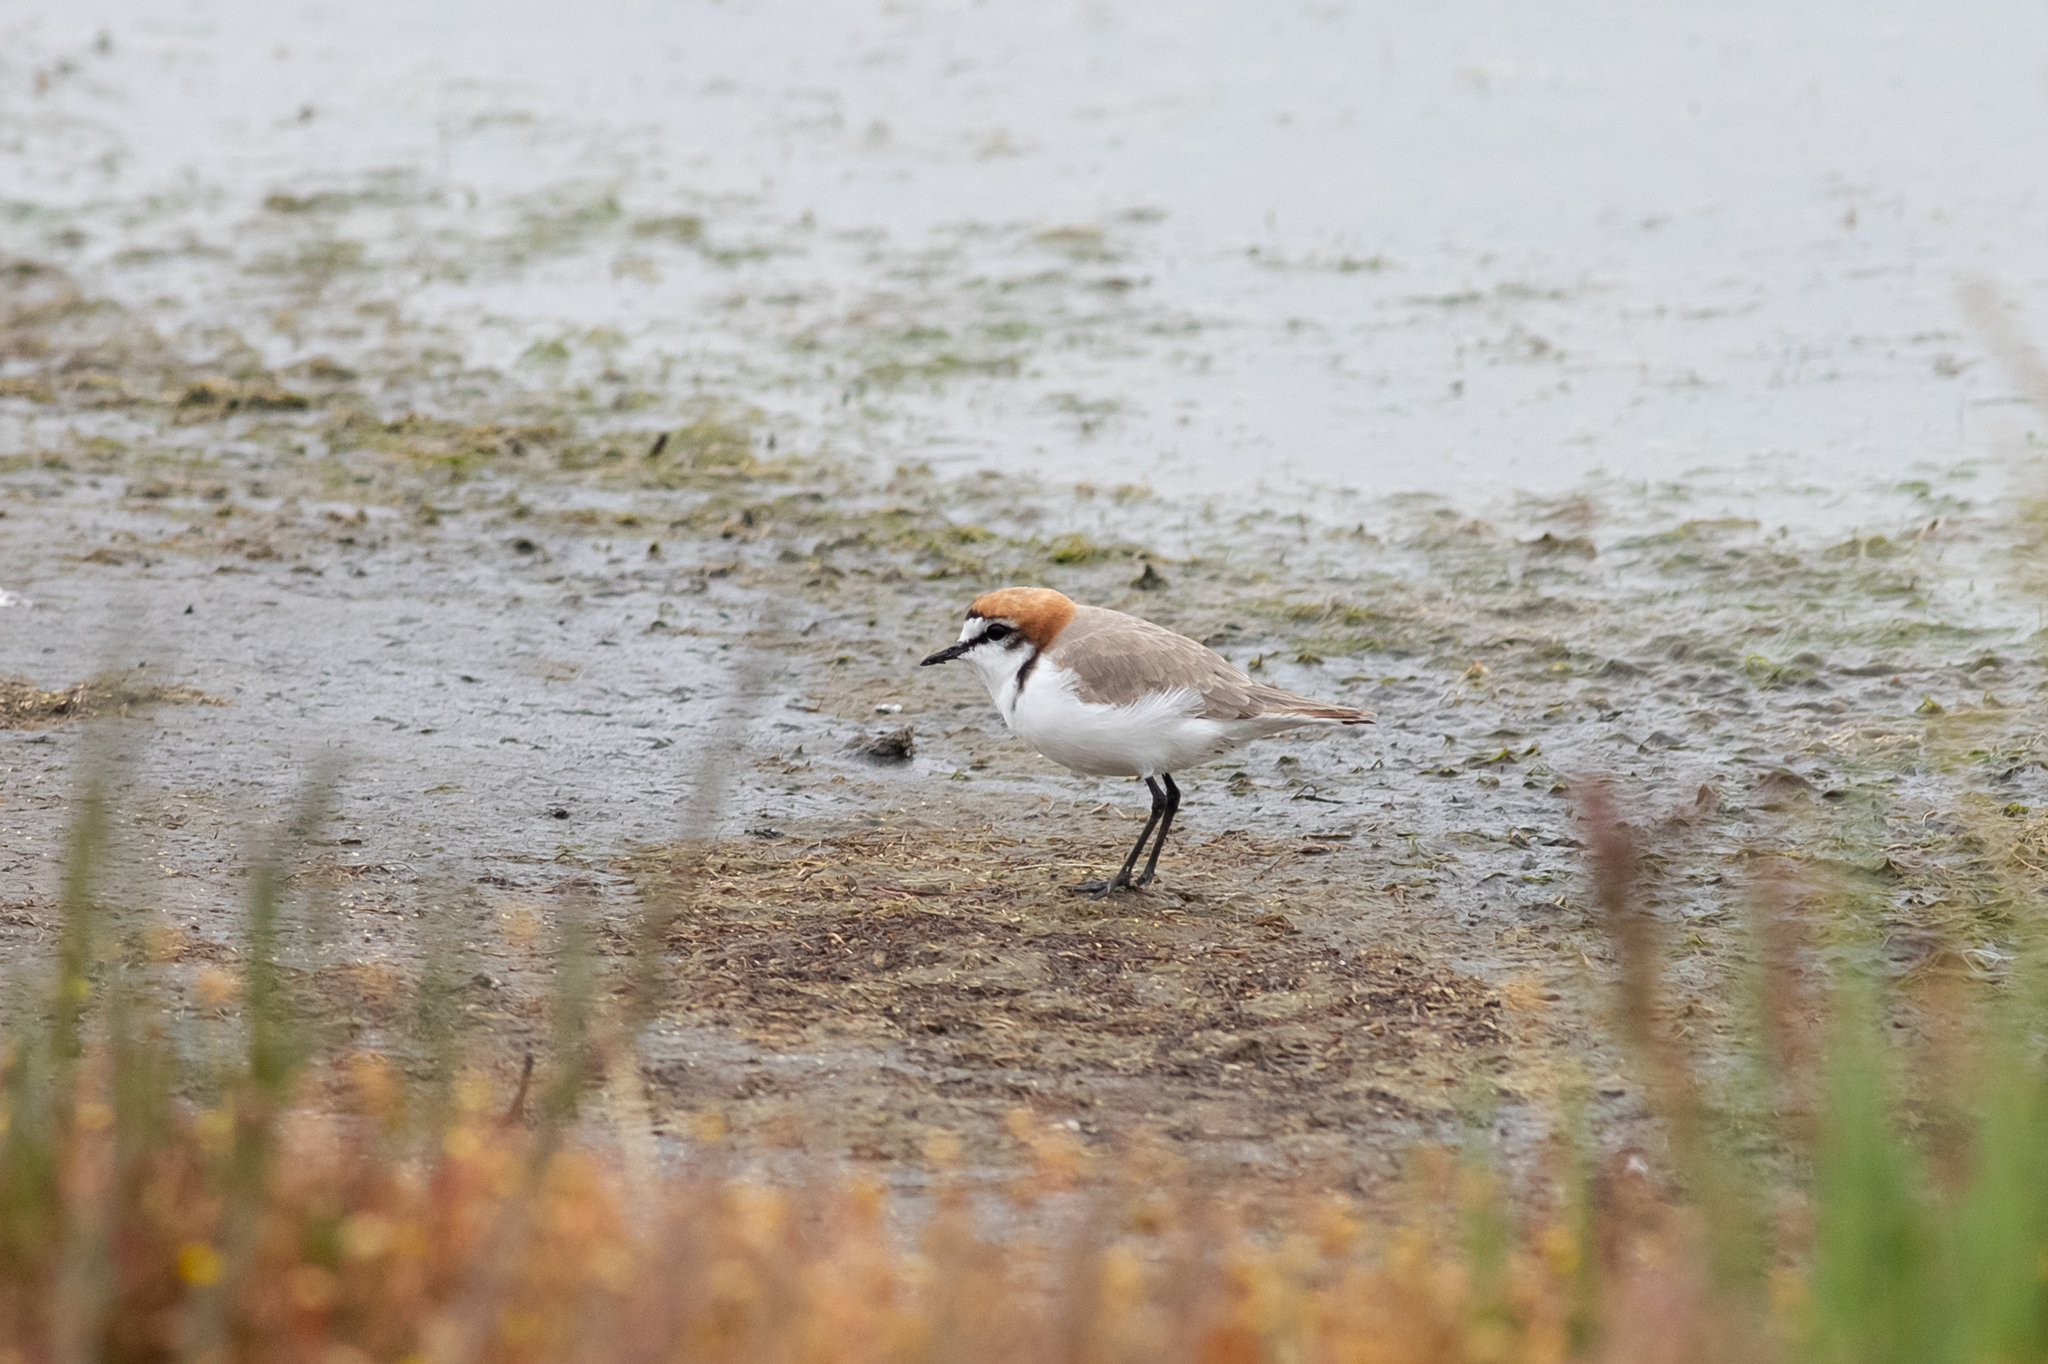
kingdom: Animalia
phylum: Chordata
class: Aves
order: Charadriiformes
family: Charadriidae
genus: Anarhynchus
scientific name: Anarhynchus
